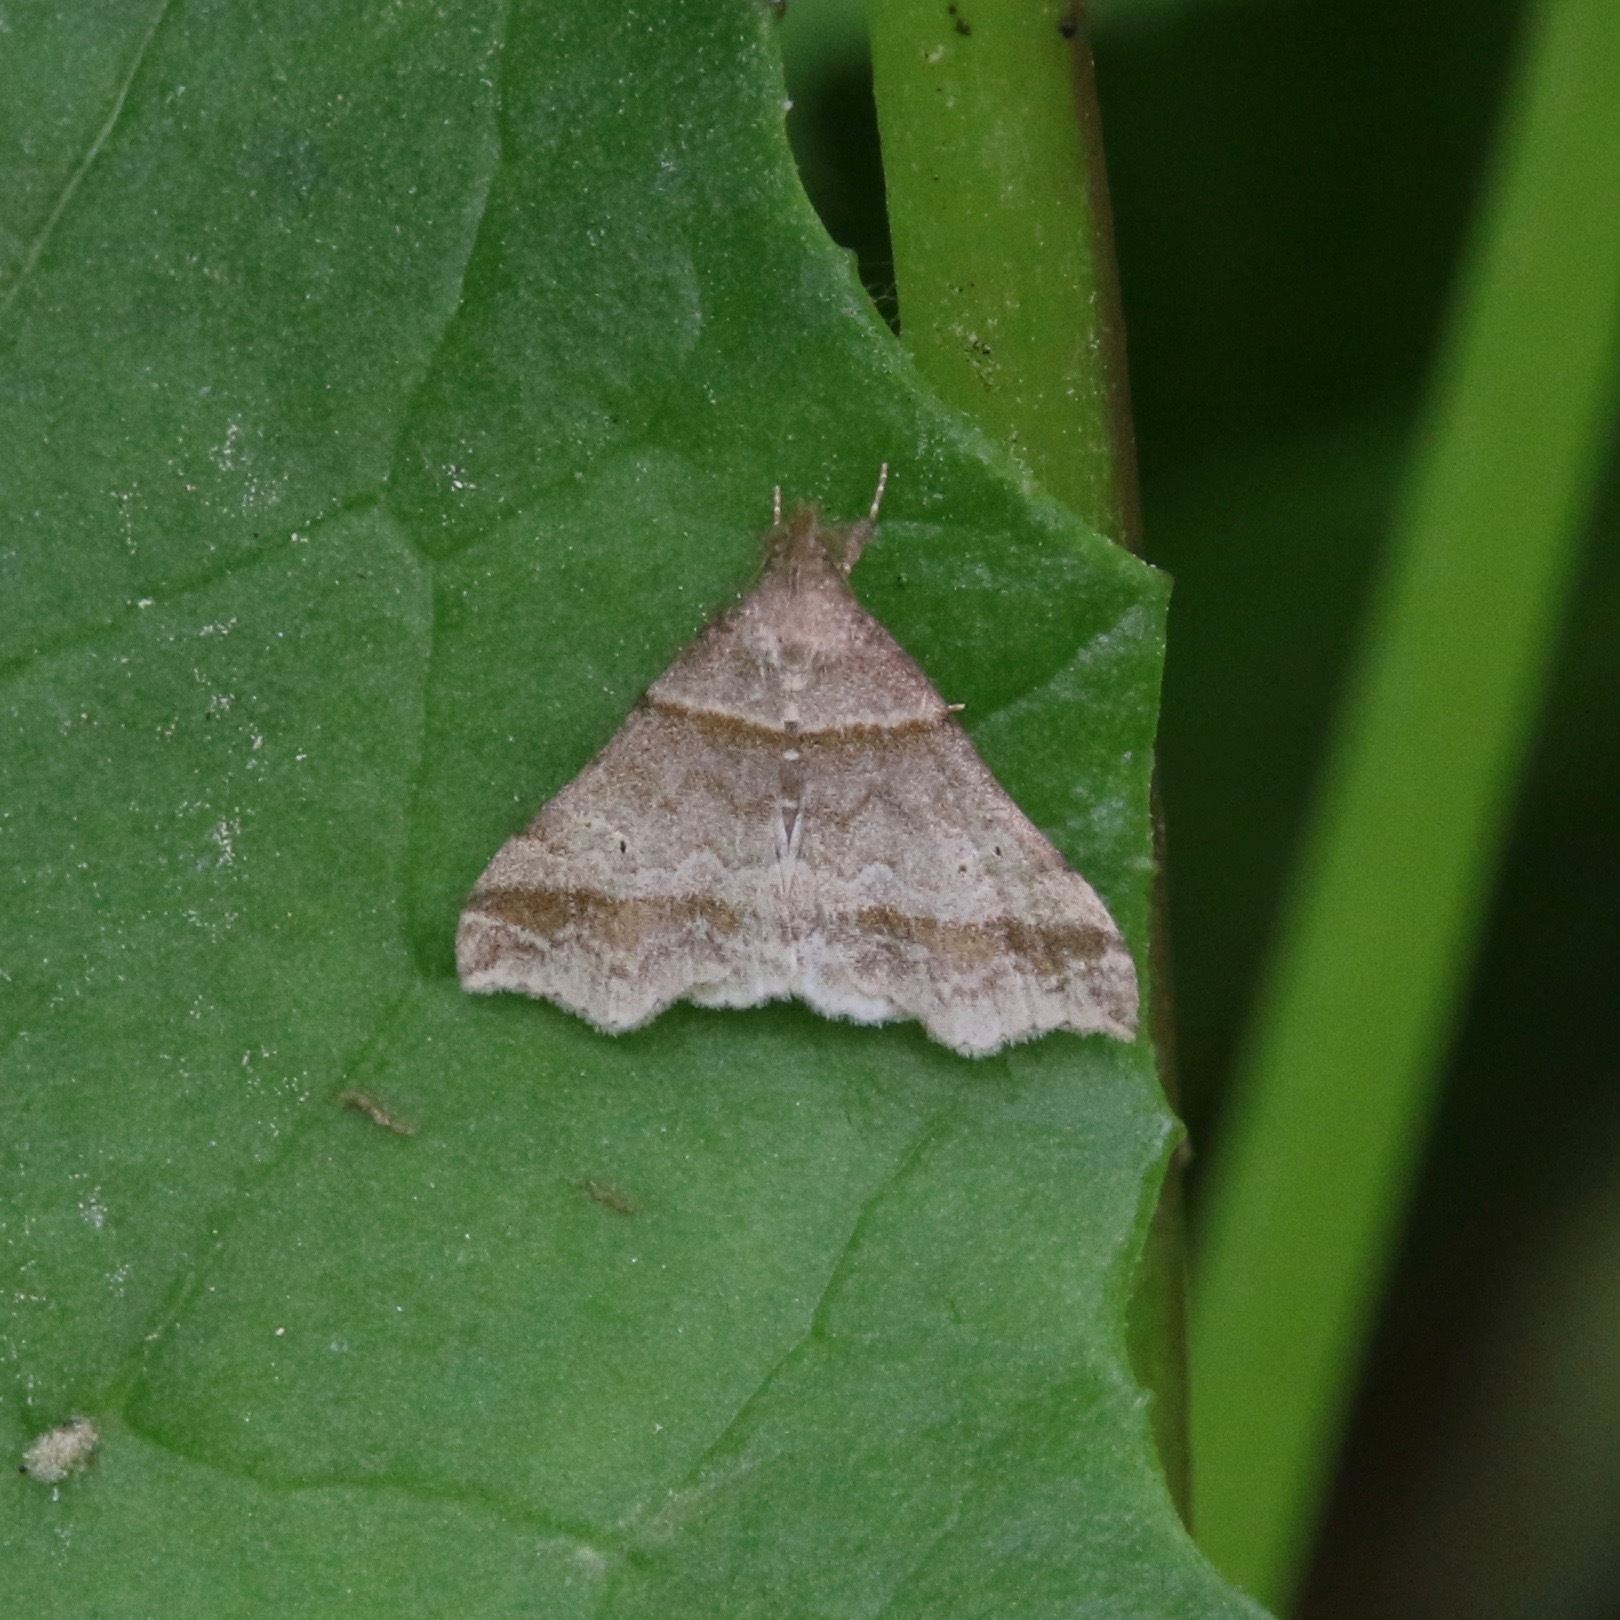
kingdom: Animalia
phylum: Arthropoda
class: Insecta
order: Lepidoptera
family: Erebidae
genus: Phaeolita
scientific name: Phaeolita pyramusalis
